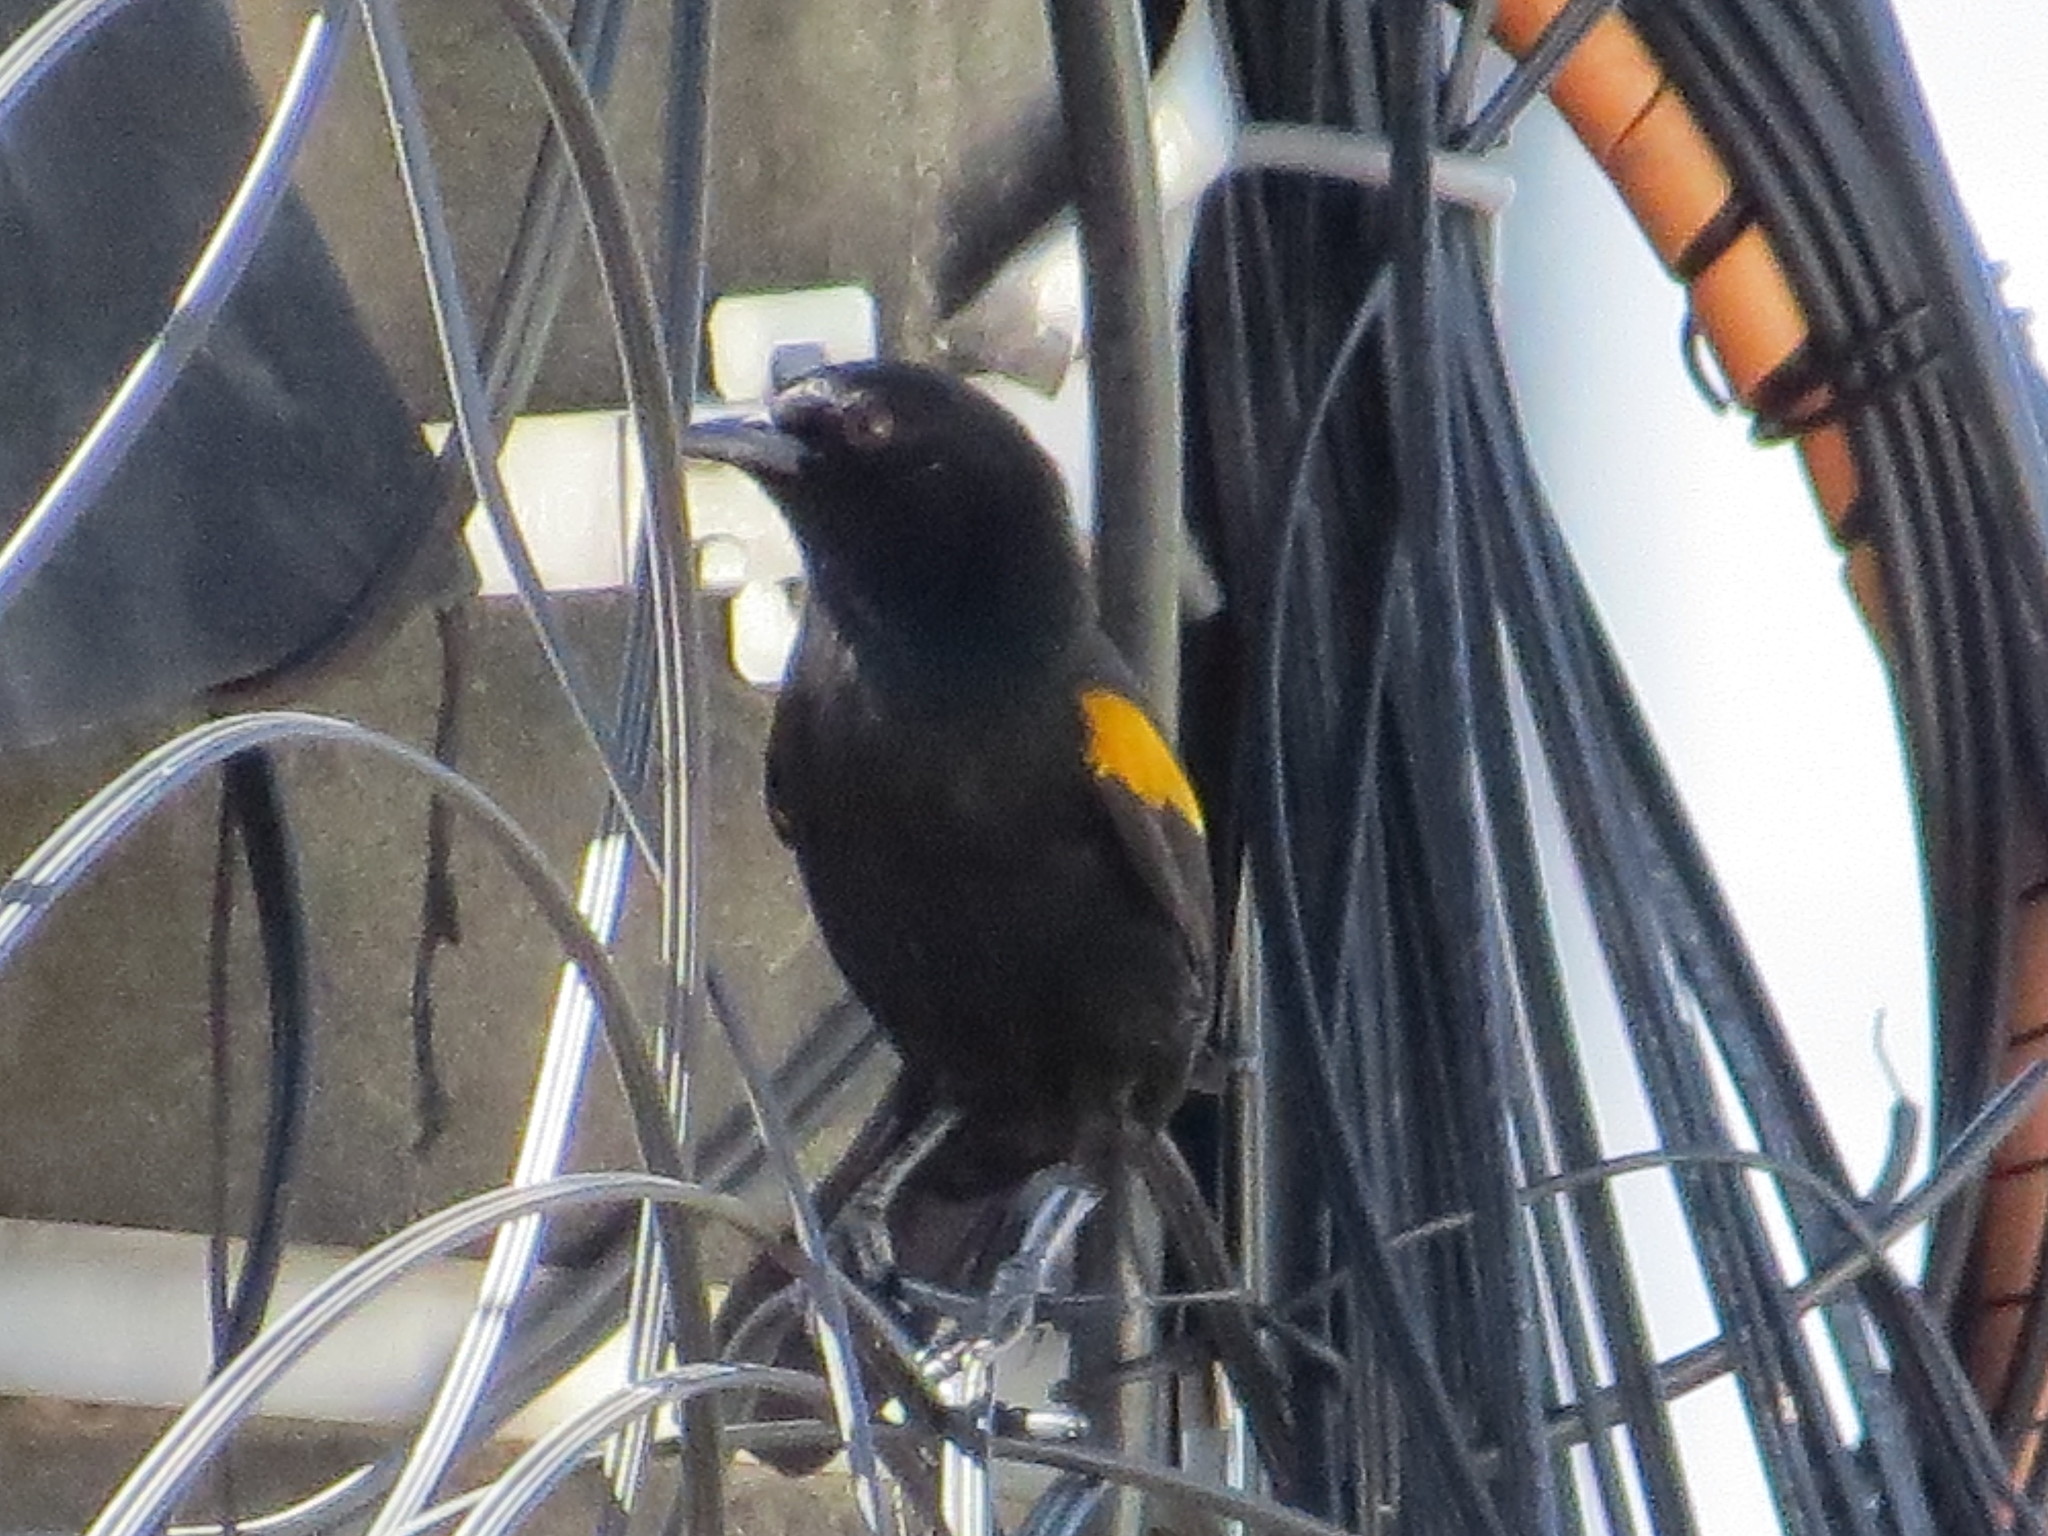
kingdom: Animalia
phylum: Chordata
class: Aves
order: Passeriformes
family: Icteridae
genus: Icterus
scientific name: Icterus cayanensis
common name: Epaulet oriole
